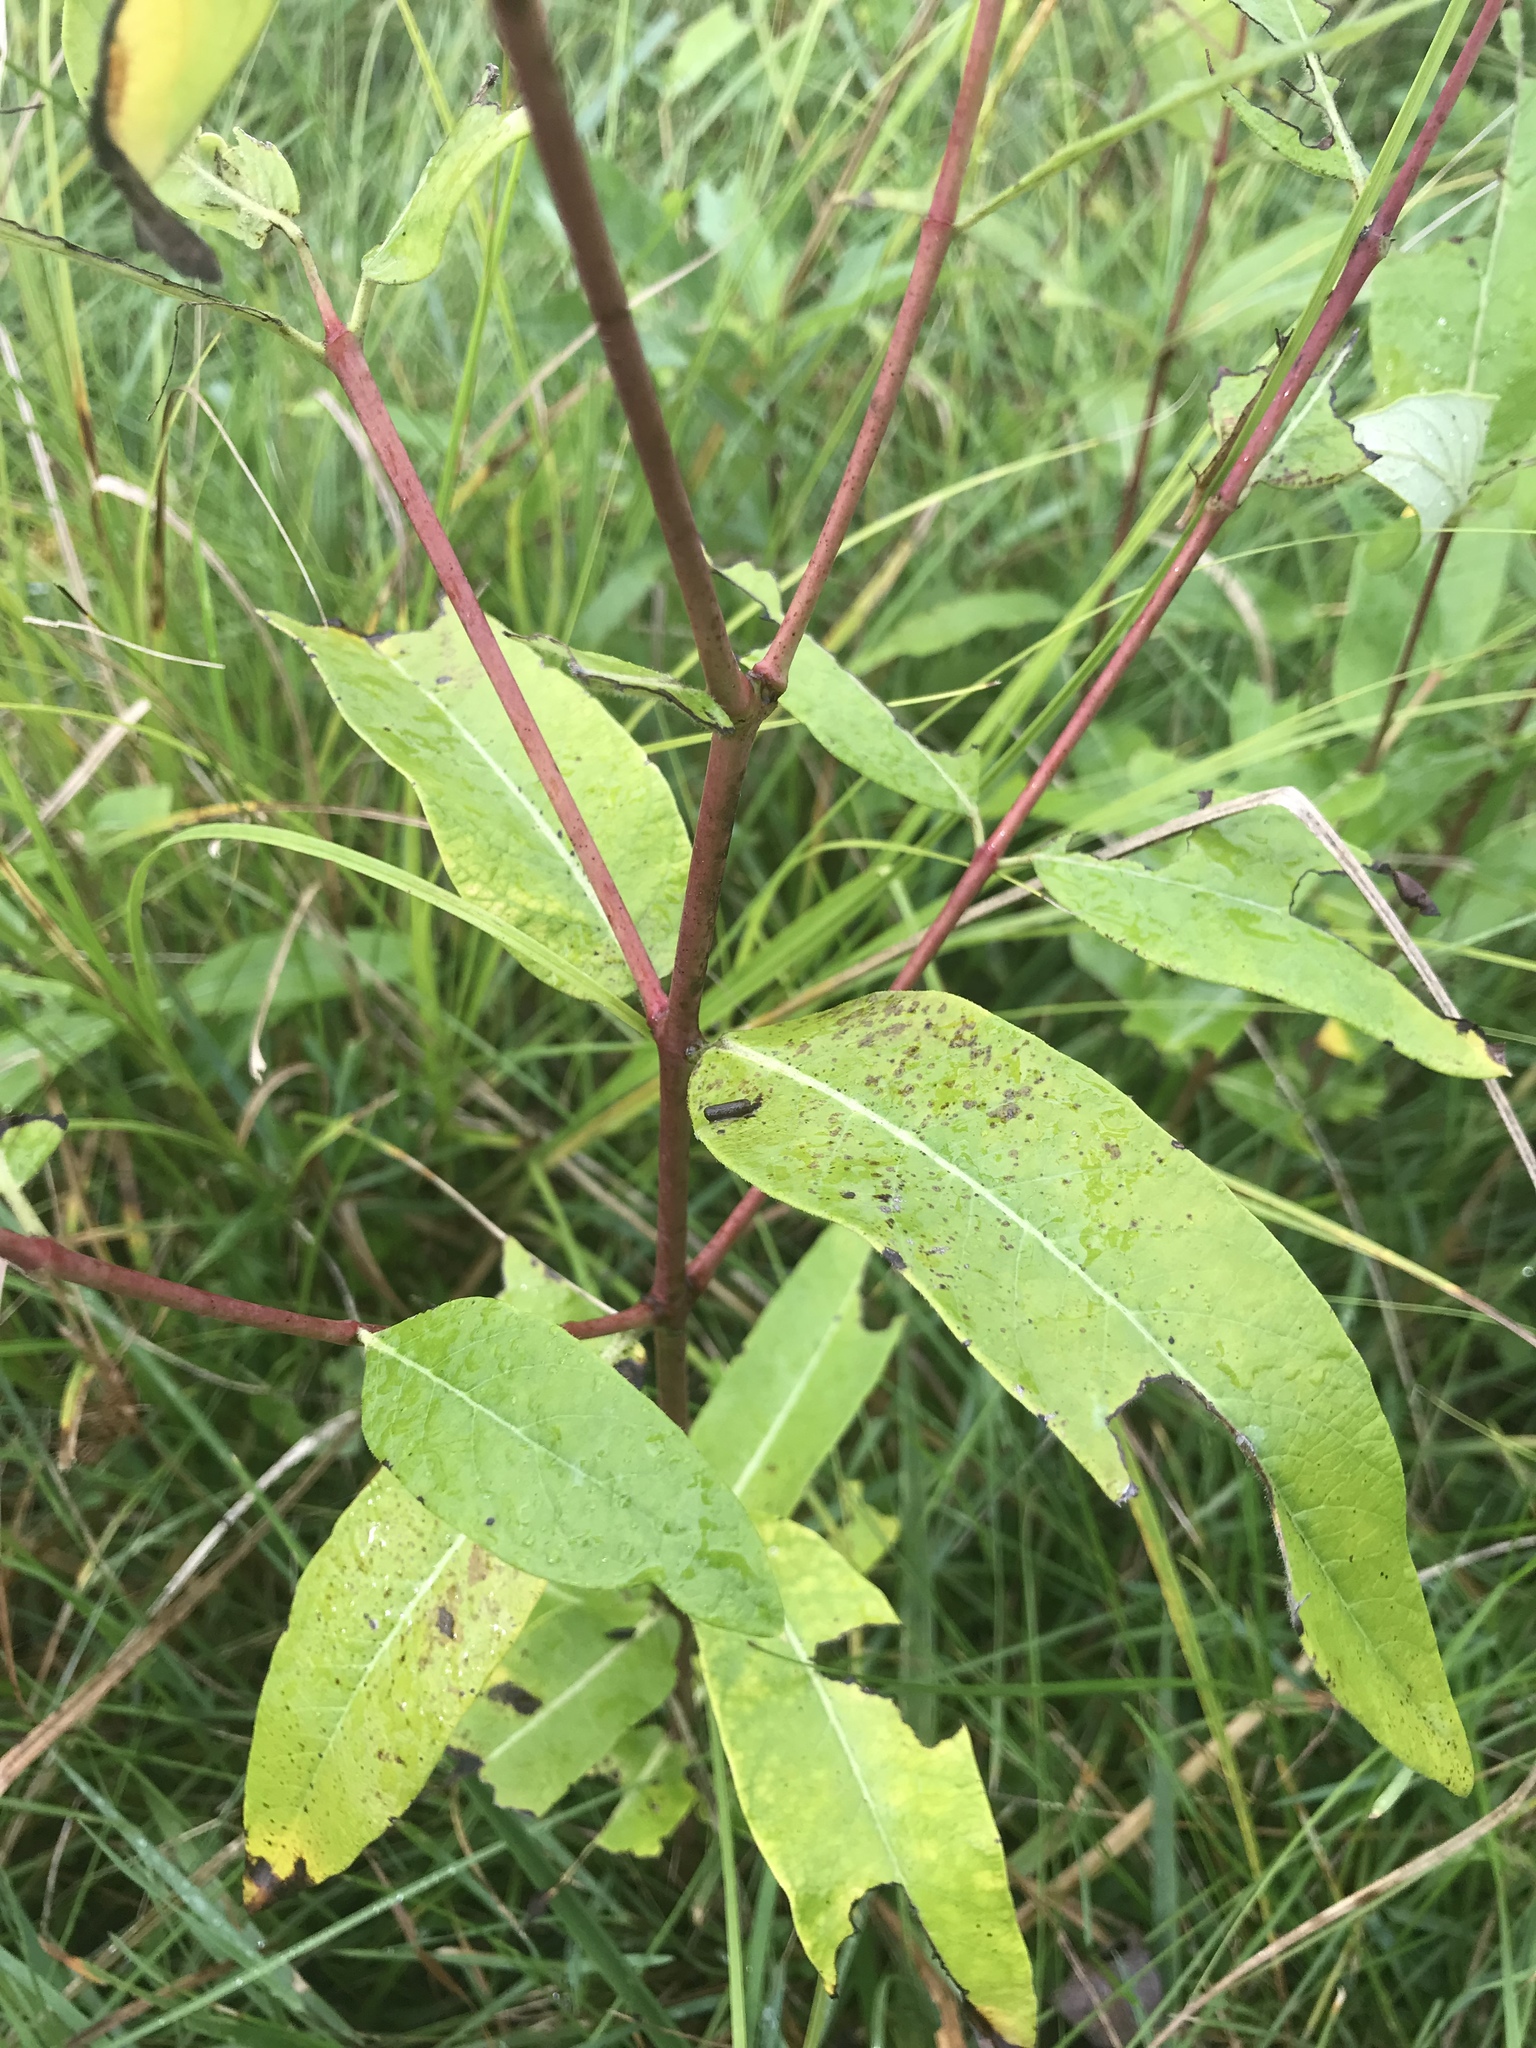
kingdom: Plantae
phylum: Tracheophyta
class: Magnoliopsida
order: Gentianales
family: Apocynaceae
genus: Apocynum
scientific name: Apocynum cannabinum
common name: Hemp dogbane
